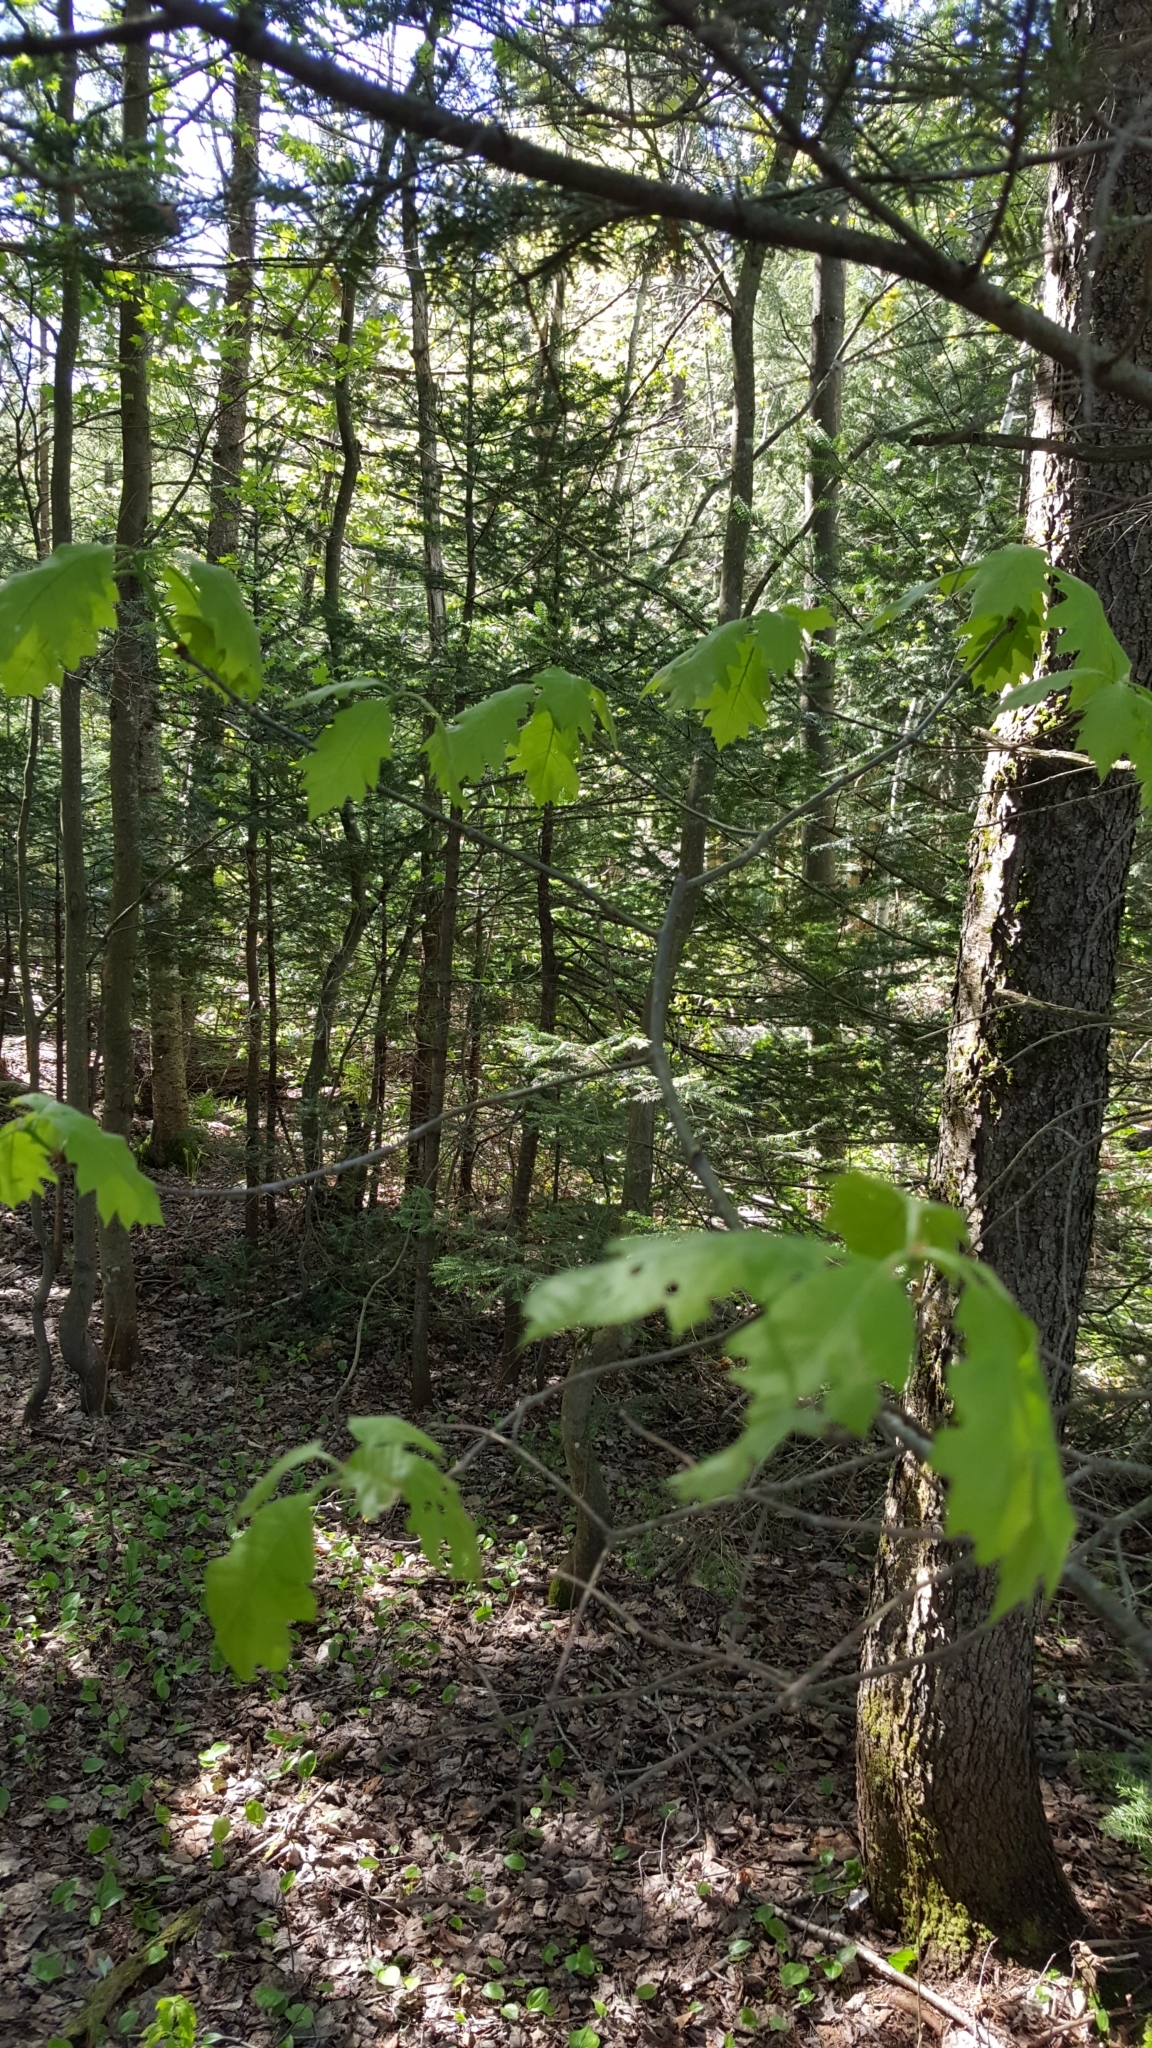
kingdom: Plantae
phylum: Tracheophyta
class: Magnoliopsida
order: Fagales
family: Fagaceae
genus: Quercus
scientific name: Quercus rubra
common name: Red oak
